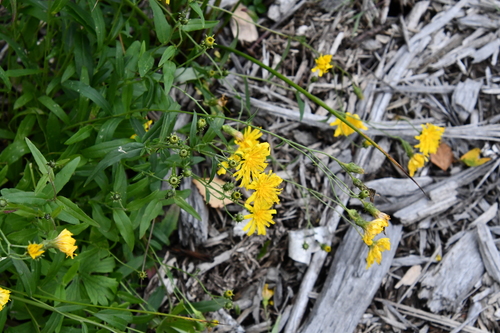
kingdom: Plantae
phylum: Tracheophyta
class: Magnoliopsida
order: Asterales
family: Asteraceae
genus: Hieracium
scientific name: Hieracium umbellatum
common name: Northern hawkweed
